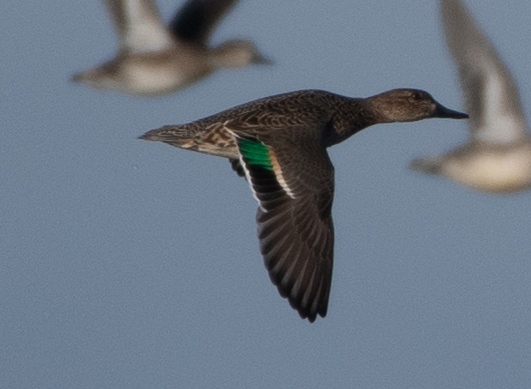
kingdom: Animalia
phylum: Chordata
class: Aves
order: Anseriformes
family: Anatidae
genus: Anas
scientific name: Anas crecca
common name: Eurasian teal
